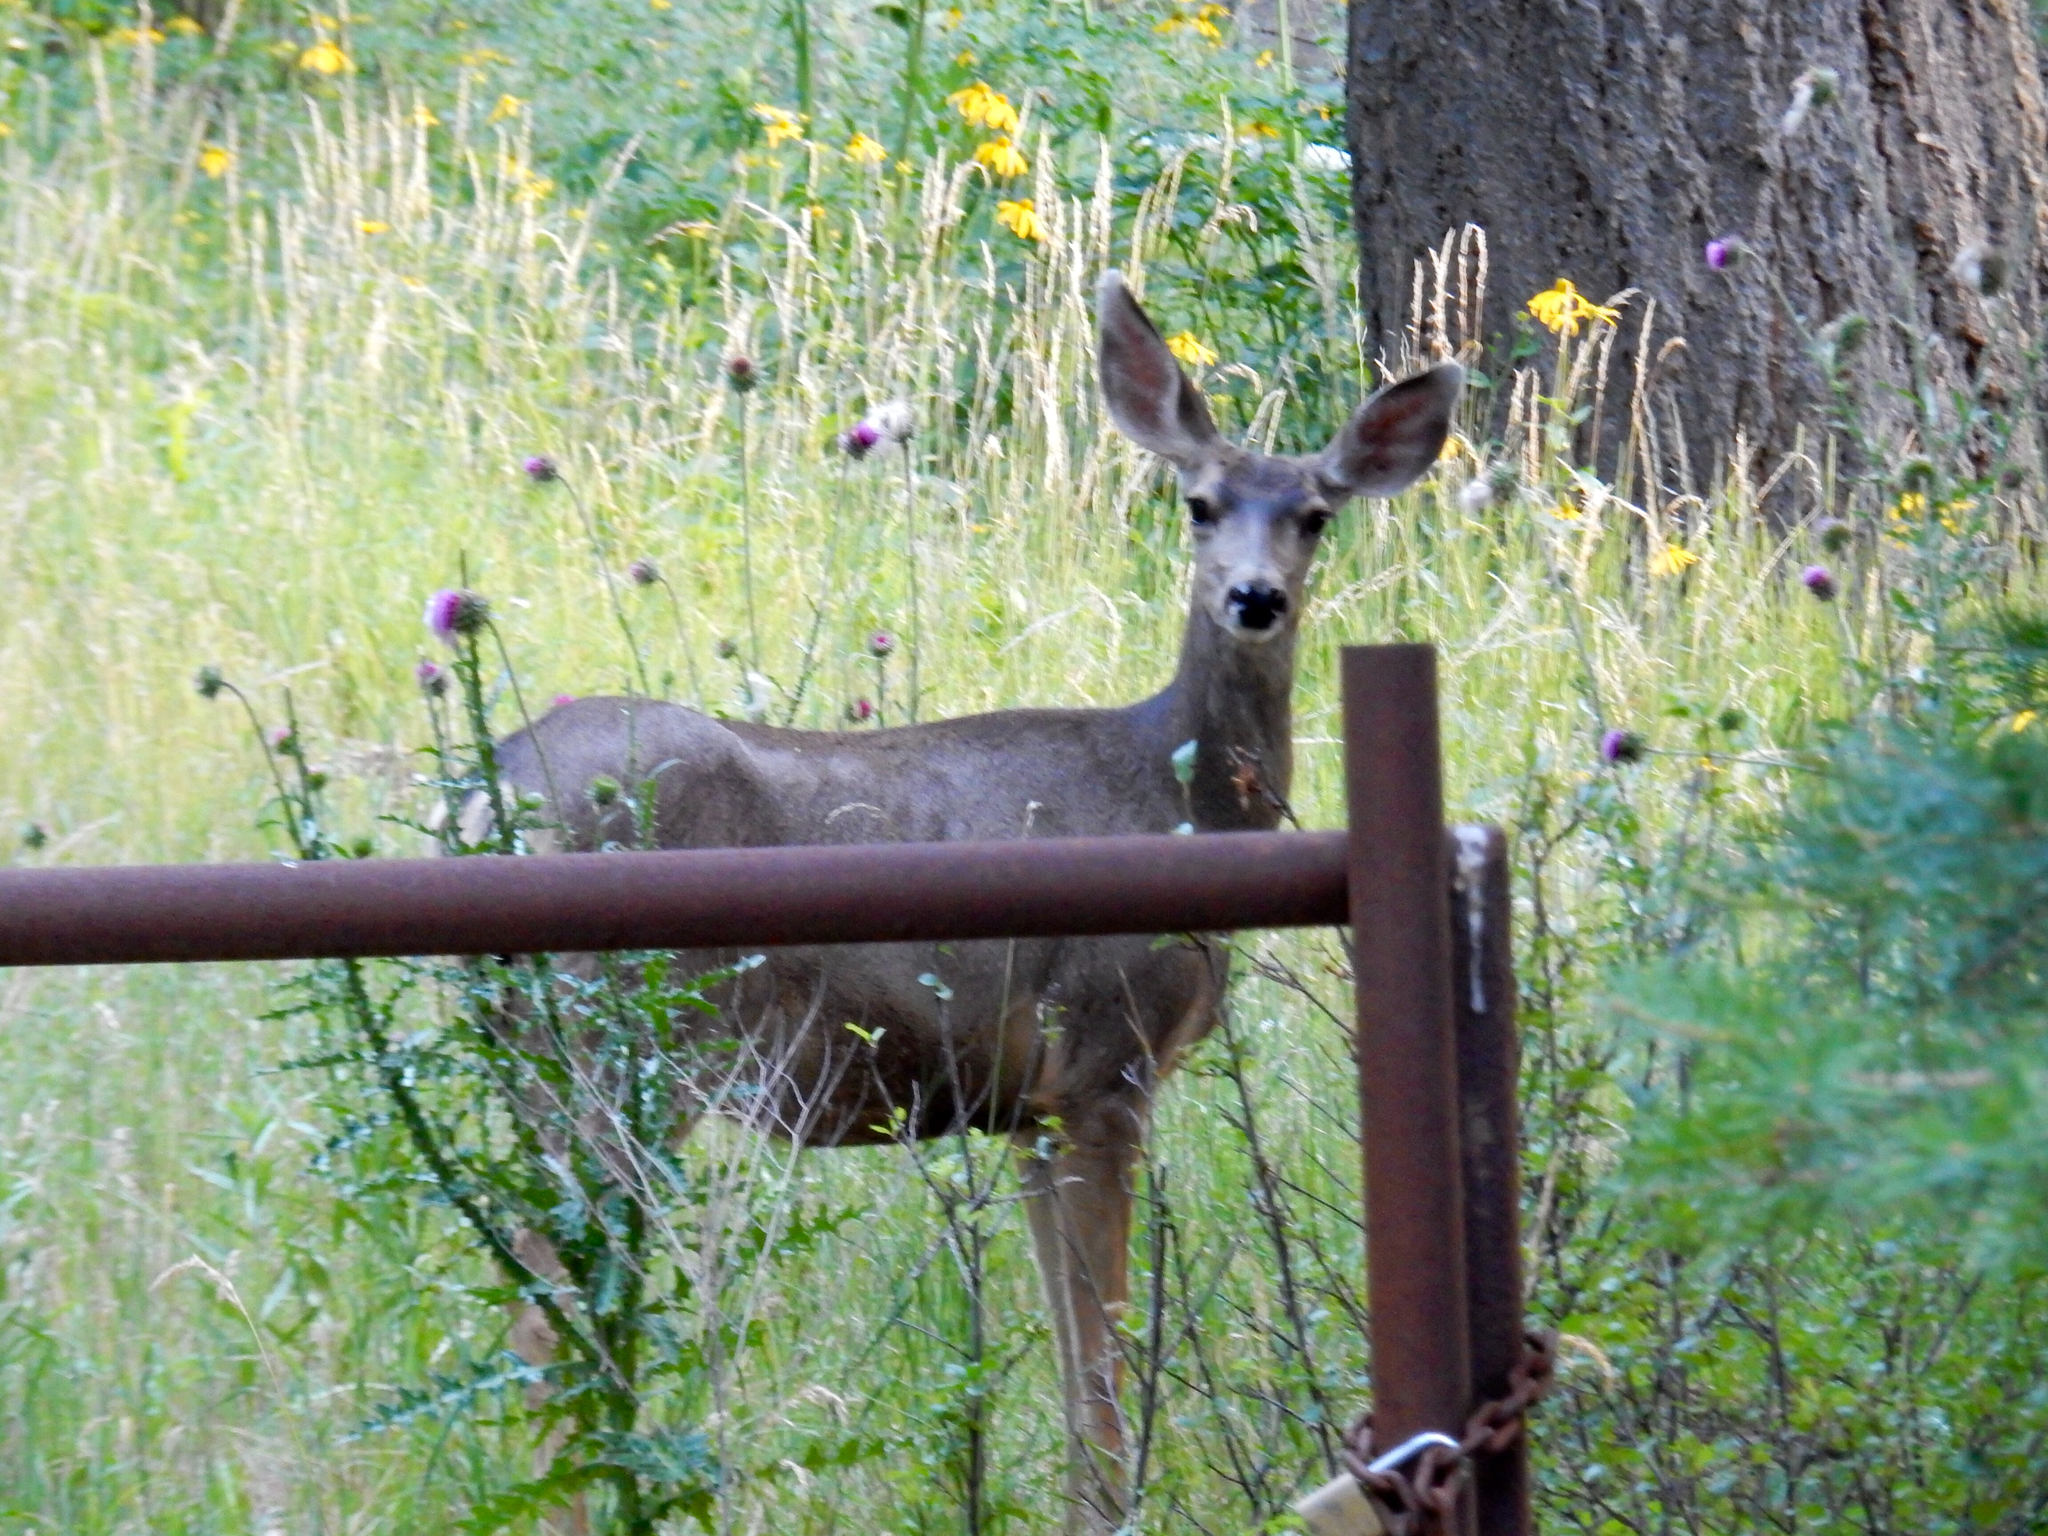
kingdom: Animalia
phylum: Chordata
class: Mammalia
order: Artiodactyla
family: Cervidae
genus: Odocoileus
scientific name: Odocoileus hemionus
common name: Mule deer
